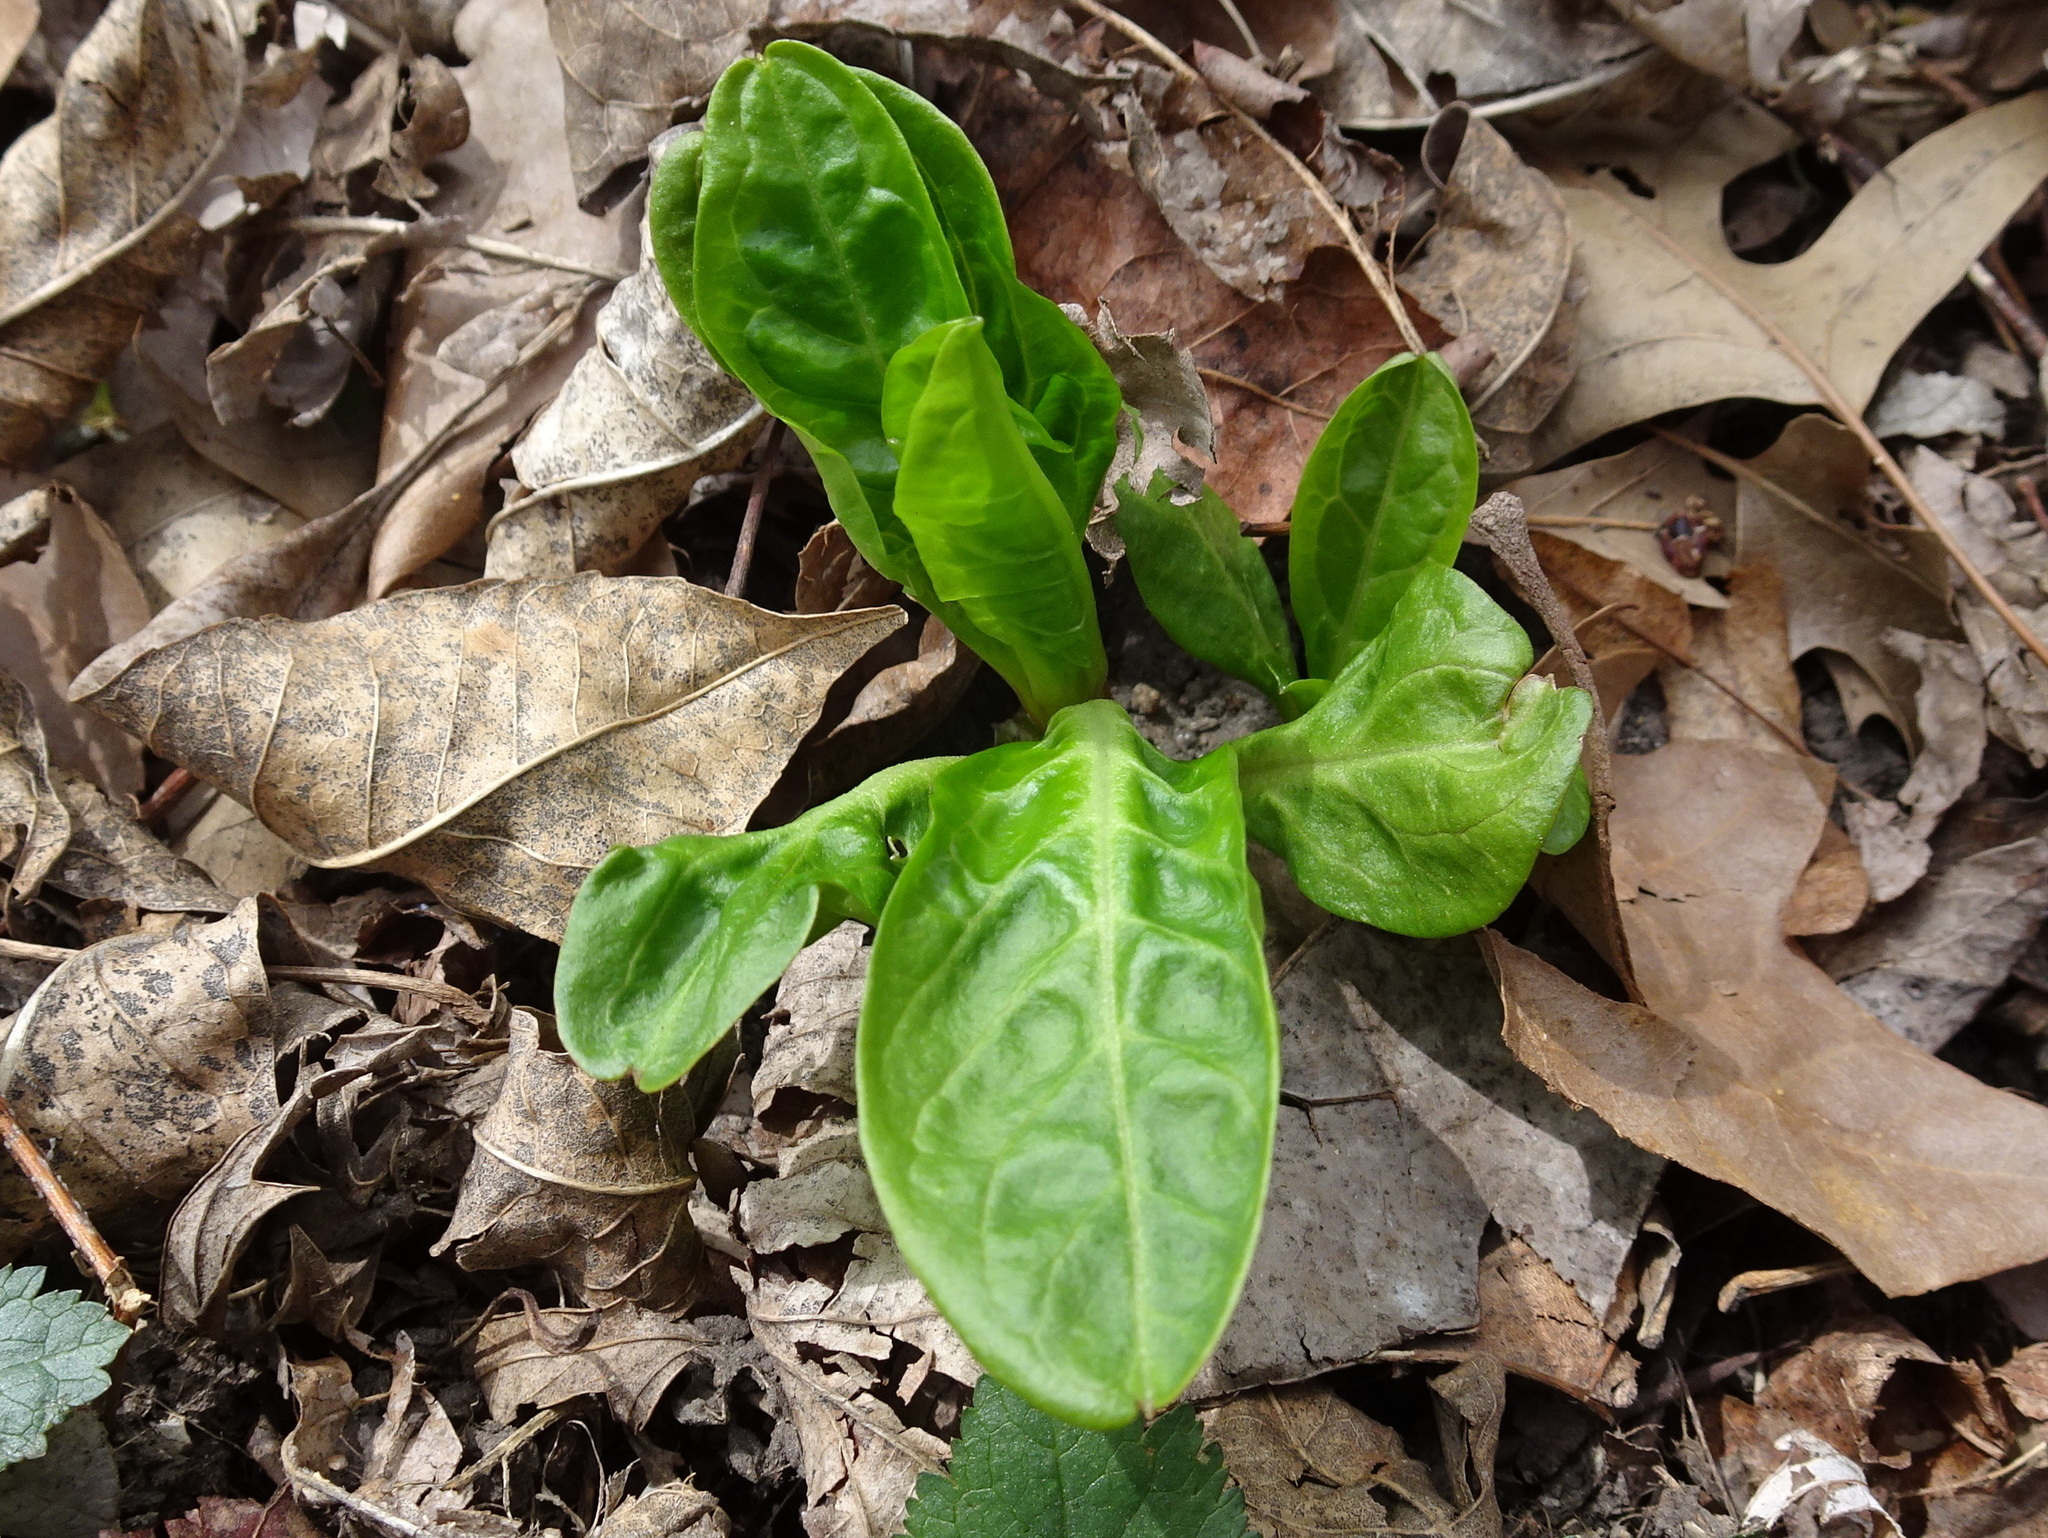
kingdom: Plantae
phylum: Tracheophyta
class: Magnoliopsida
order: Caryophyllales
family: Phytolaccaceae
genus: Phytolacca
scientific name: Phytolacca americana
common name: American pokeweed
